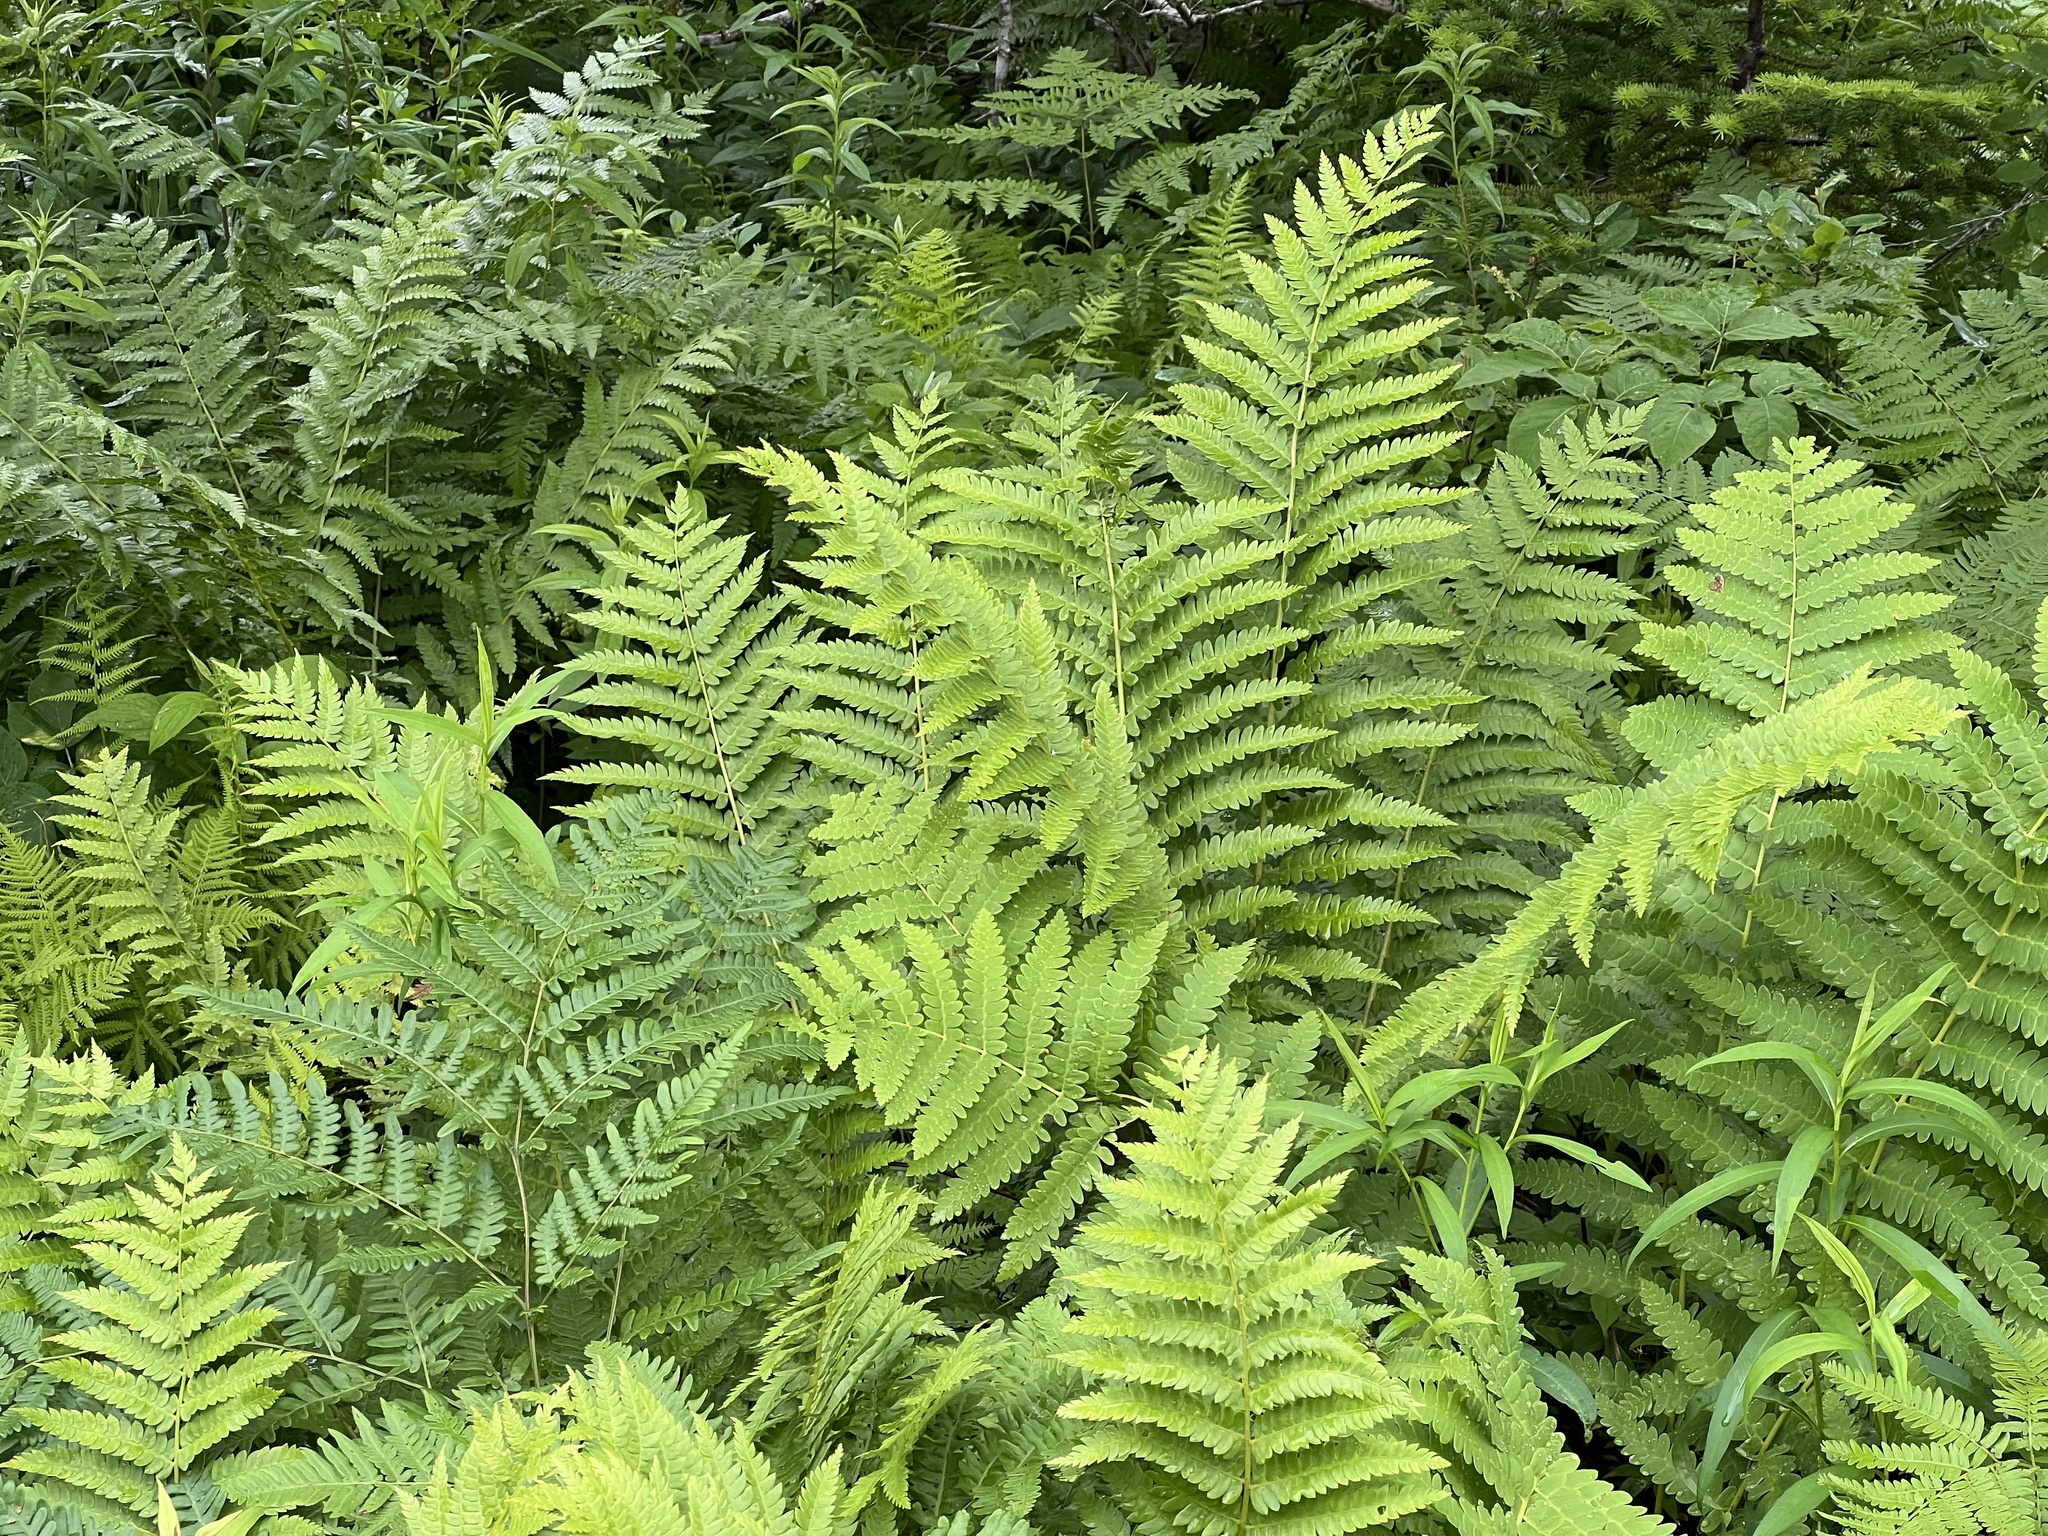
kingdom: Plantae
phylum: Tracheophyta
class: Polypodiopsida
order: Osmundales
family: Osmundaceae
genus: Osmundastrum
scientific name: Osmundastrum cinnamomeum
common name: Cinnamon fern
